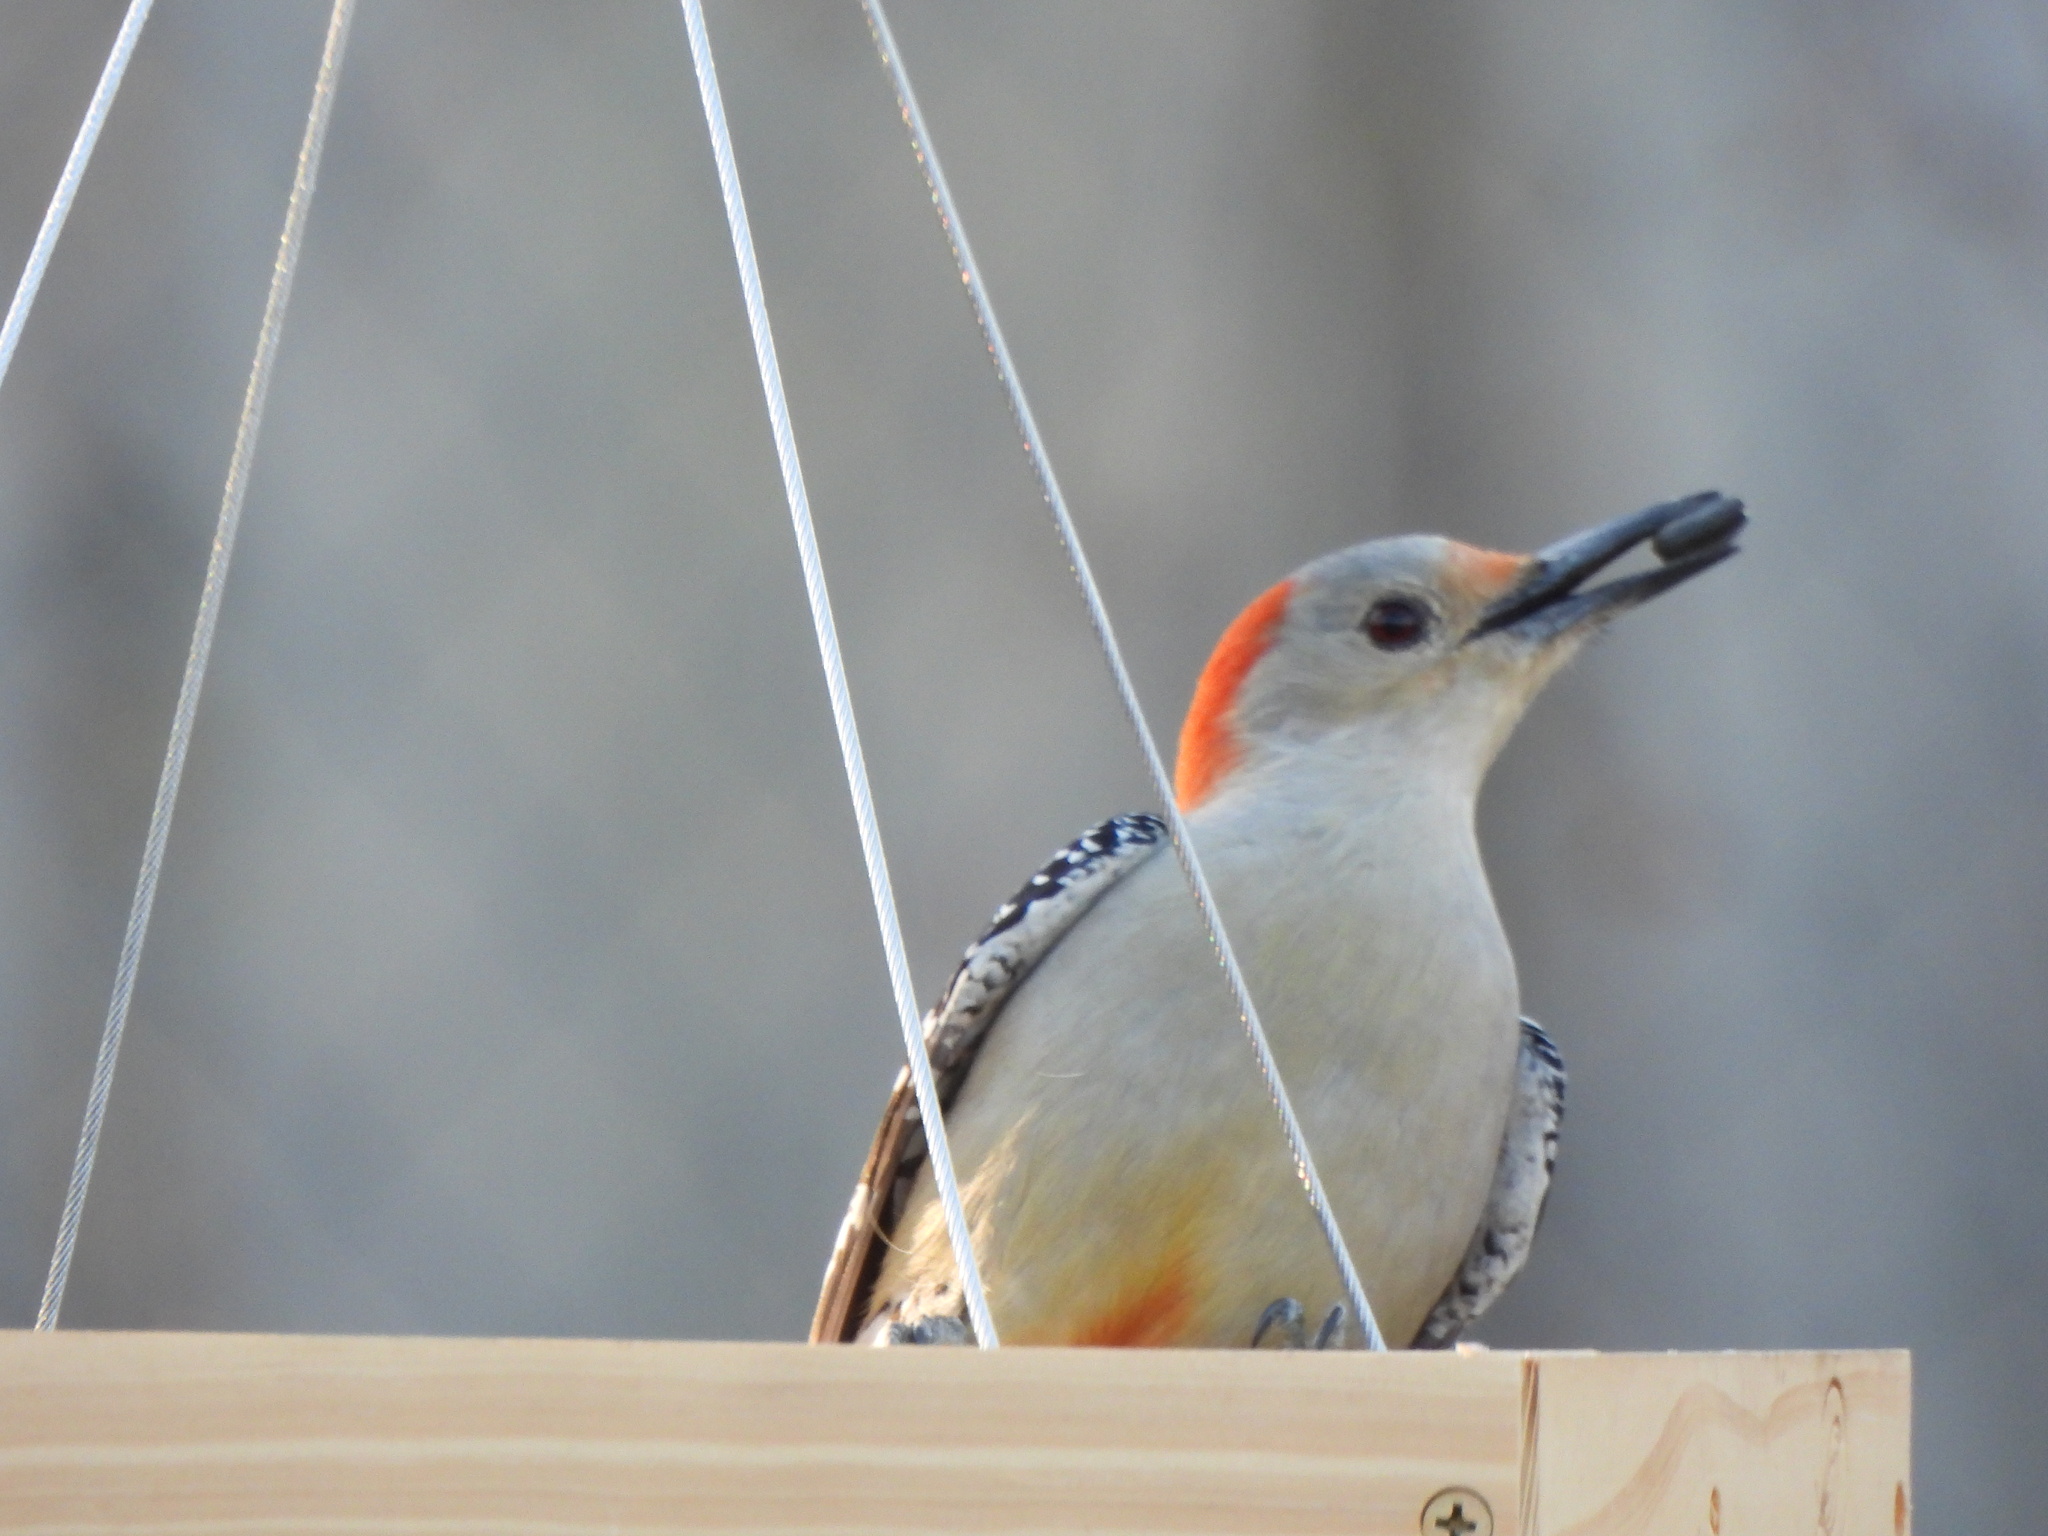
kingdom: Animalia
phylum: Chordata
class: Aves
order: Piciformes
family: Picidae
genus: Melanerpes
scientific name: Melanerpes carolinus
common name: Red-bellied woodpecker
